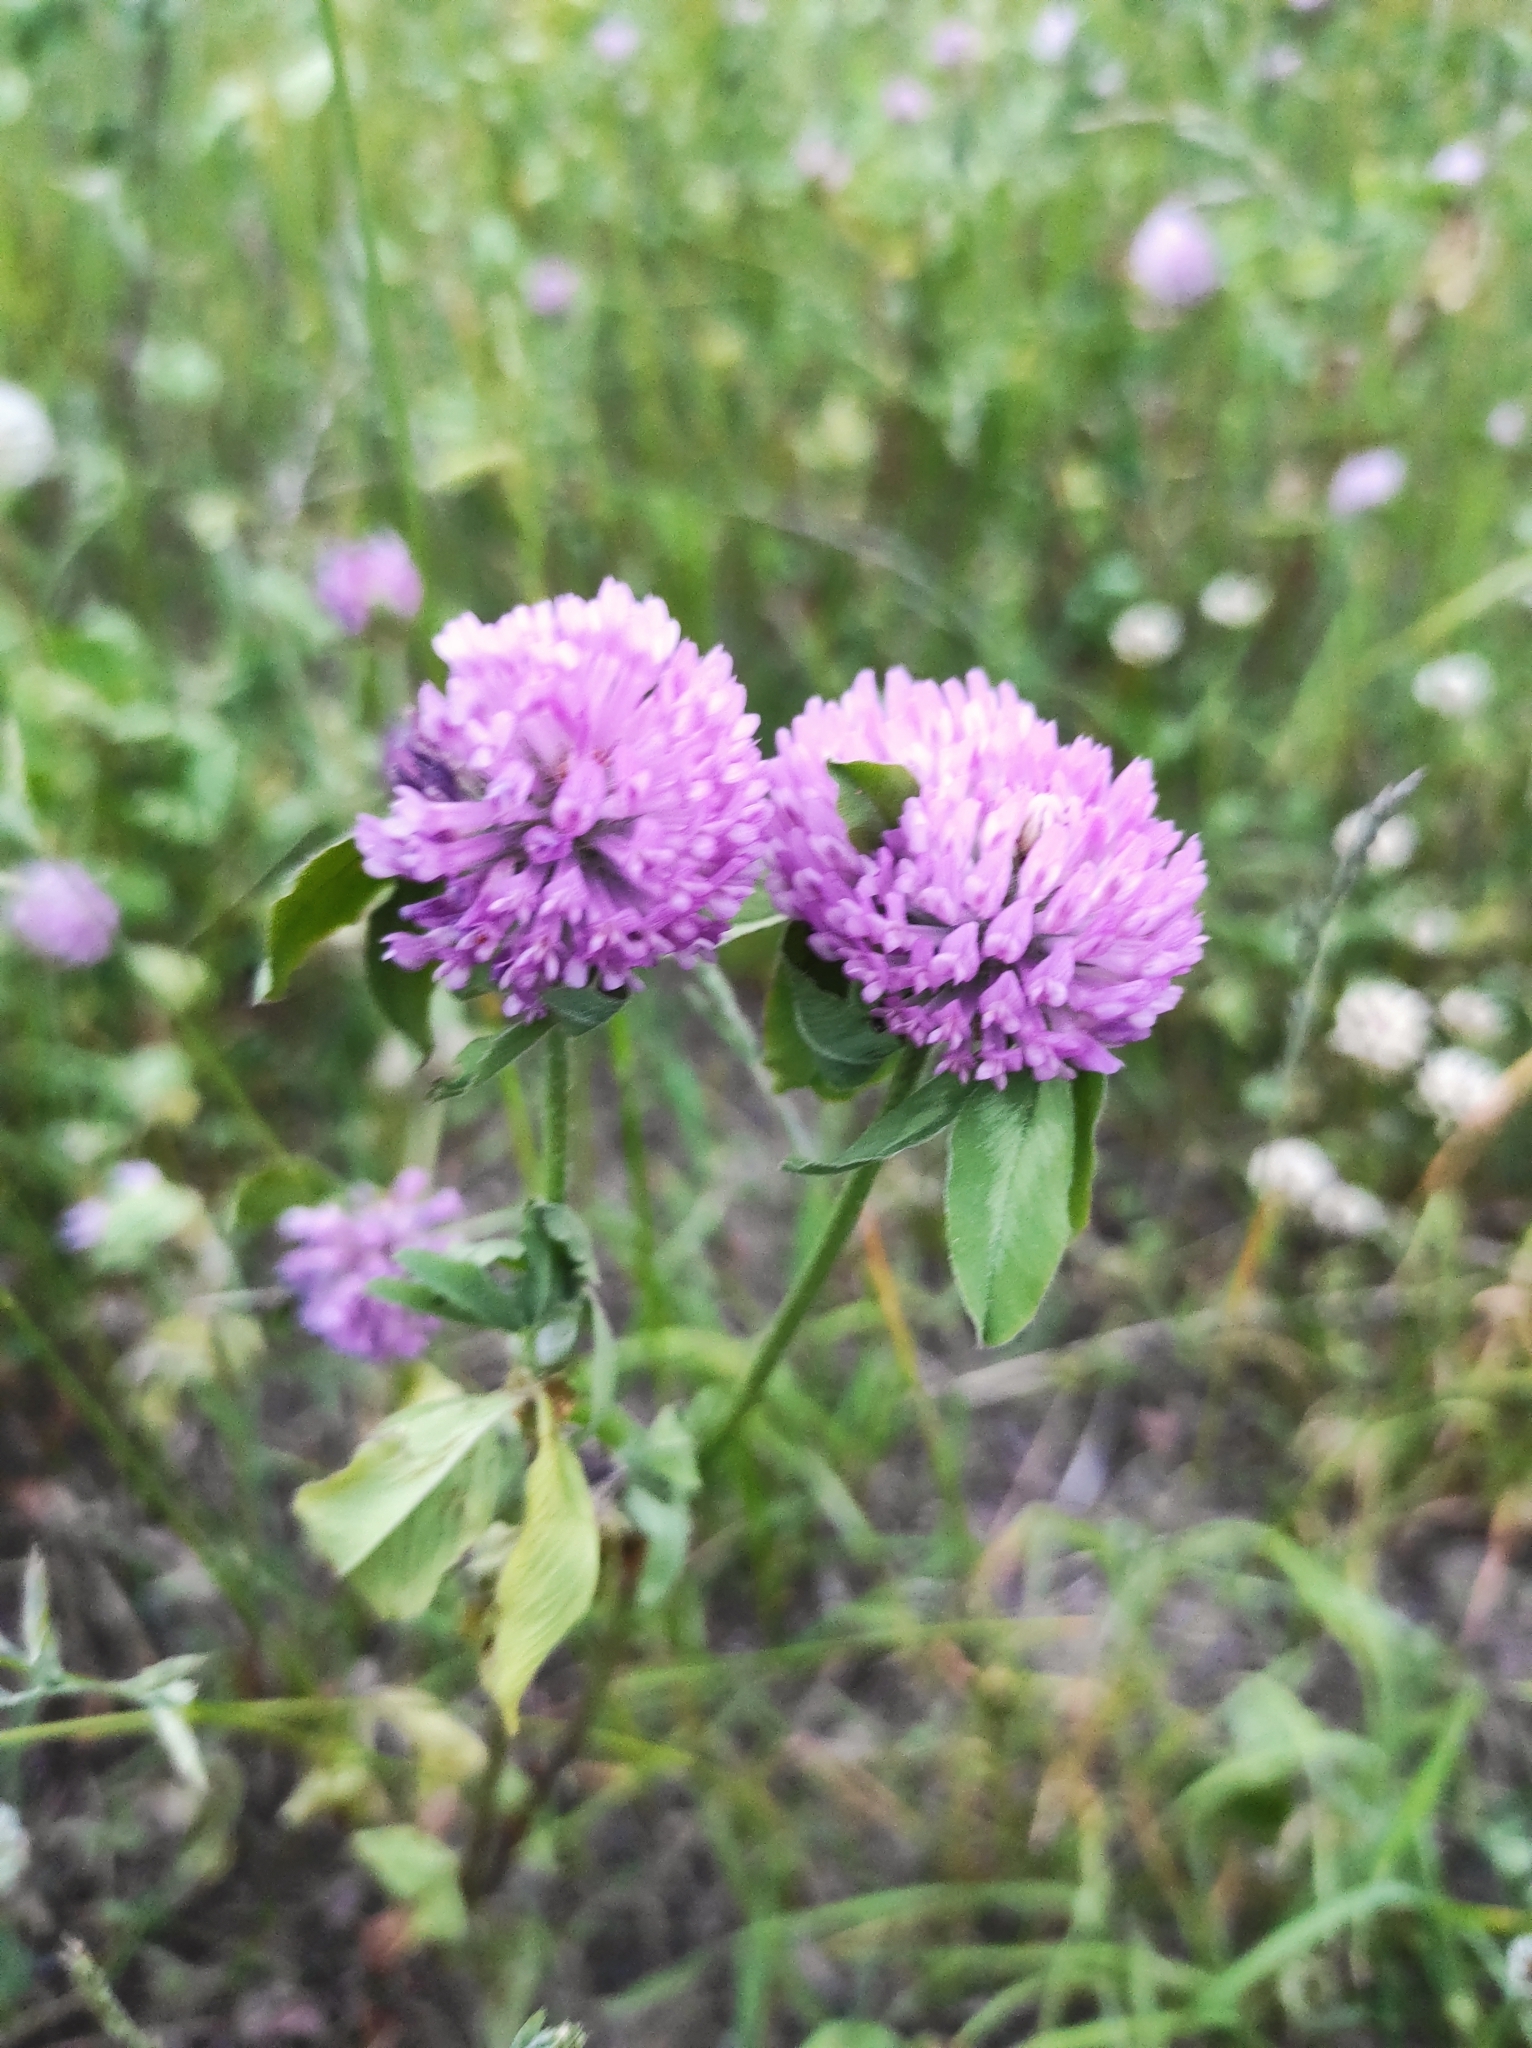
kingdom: Plantae
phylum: Tracheophyta
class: Magnoliopsida
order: Fabales
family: Fabaceae
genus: Trifolium
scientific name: Trifolium pratense
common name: Red clover
